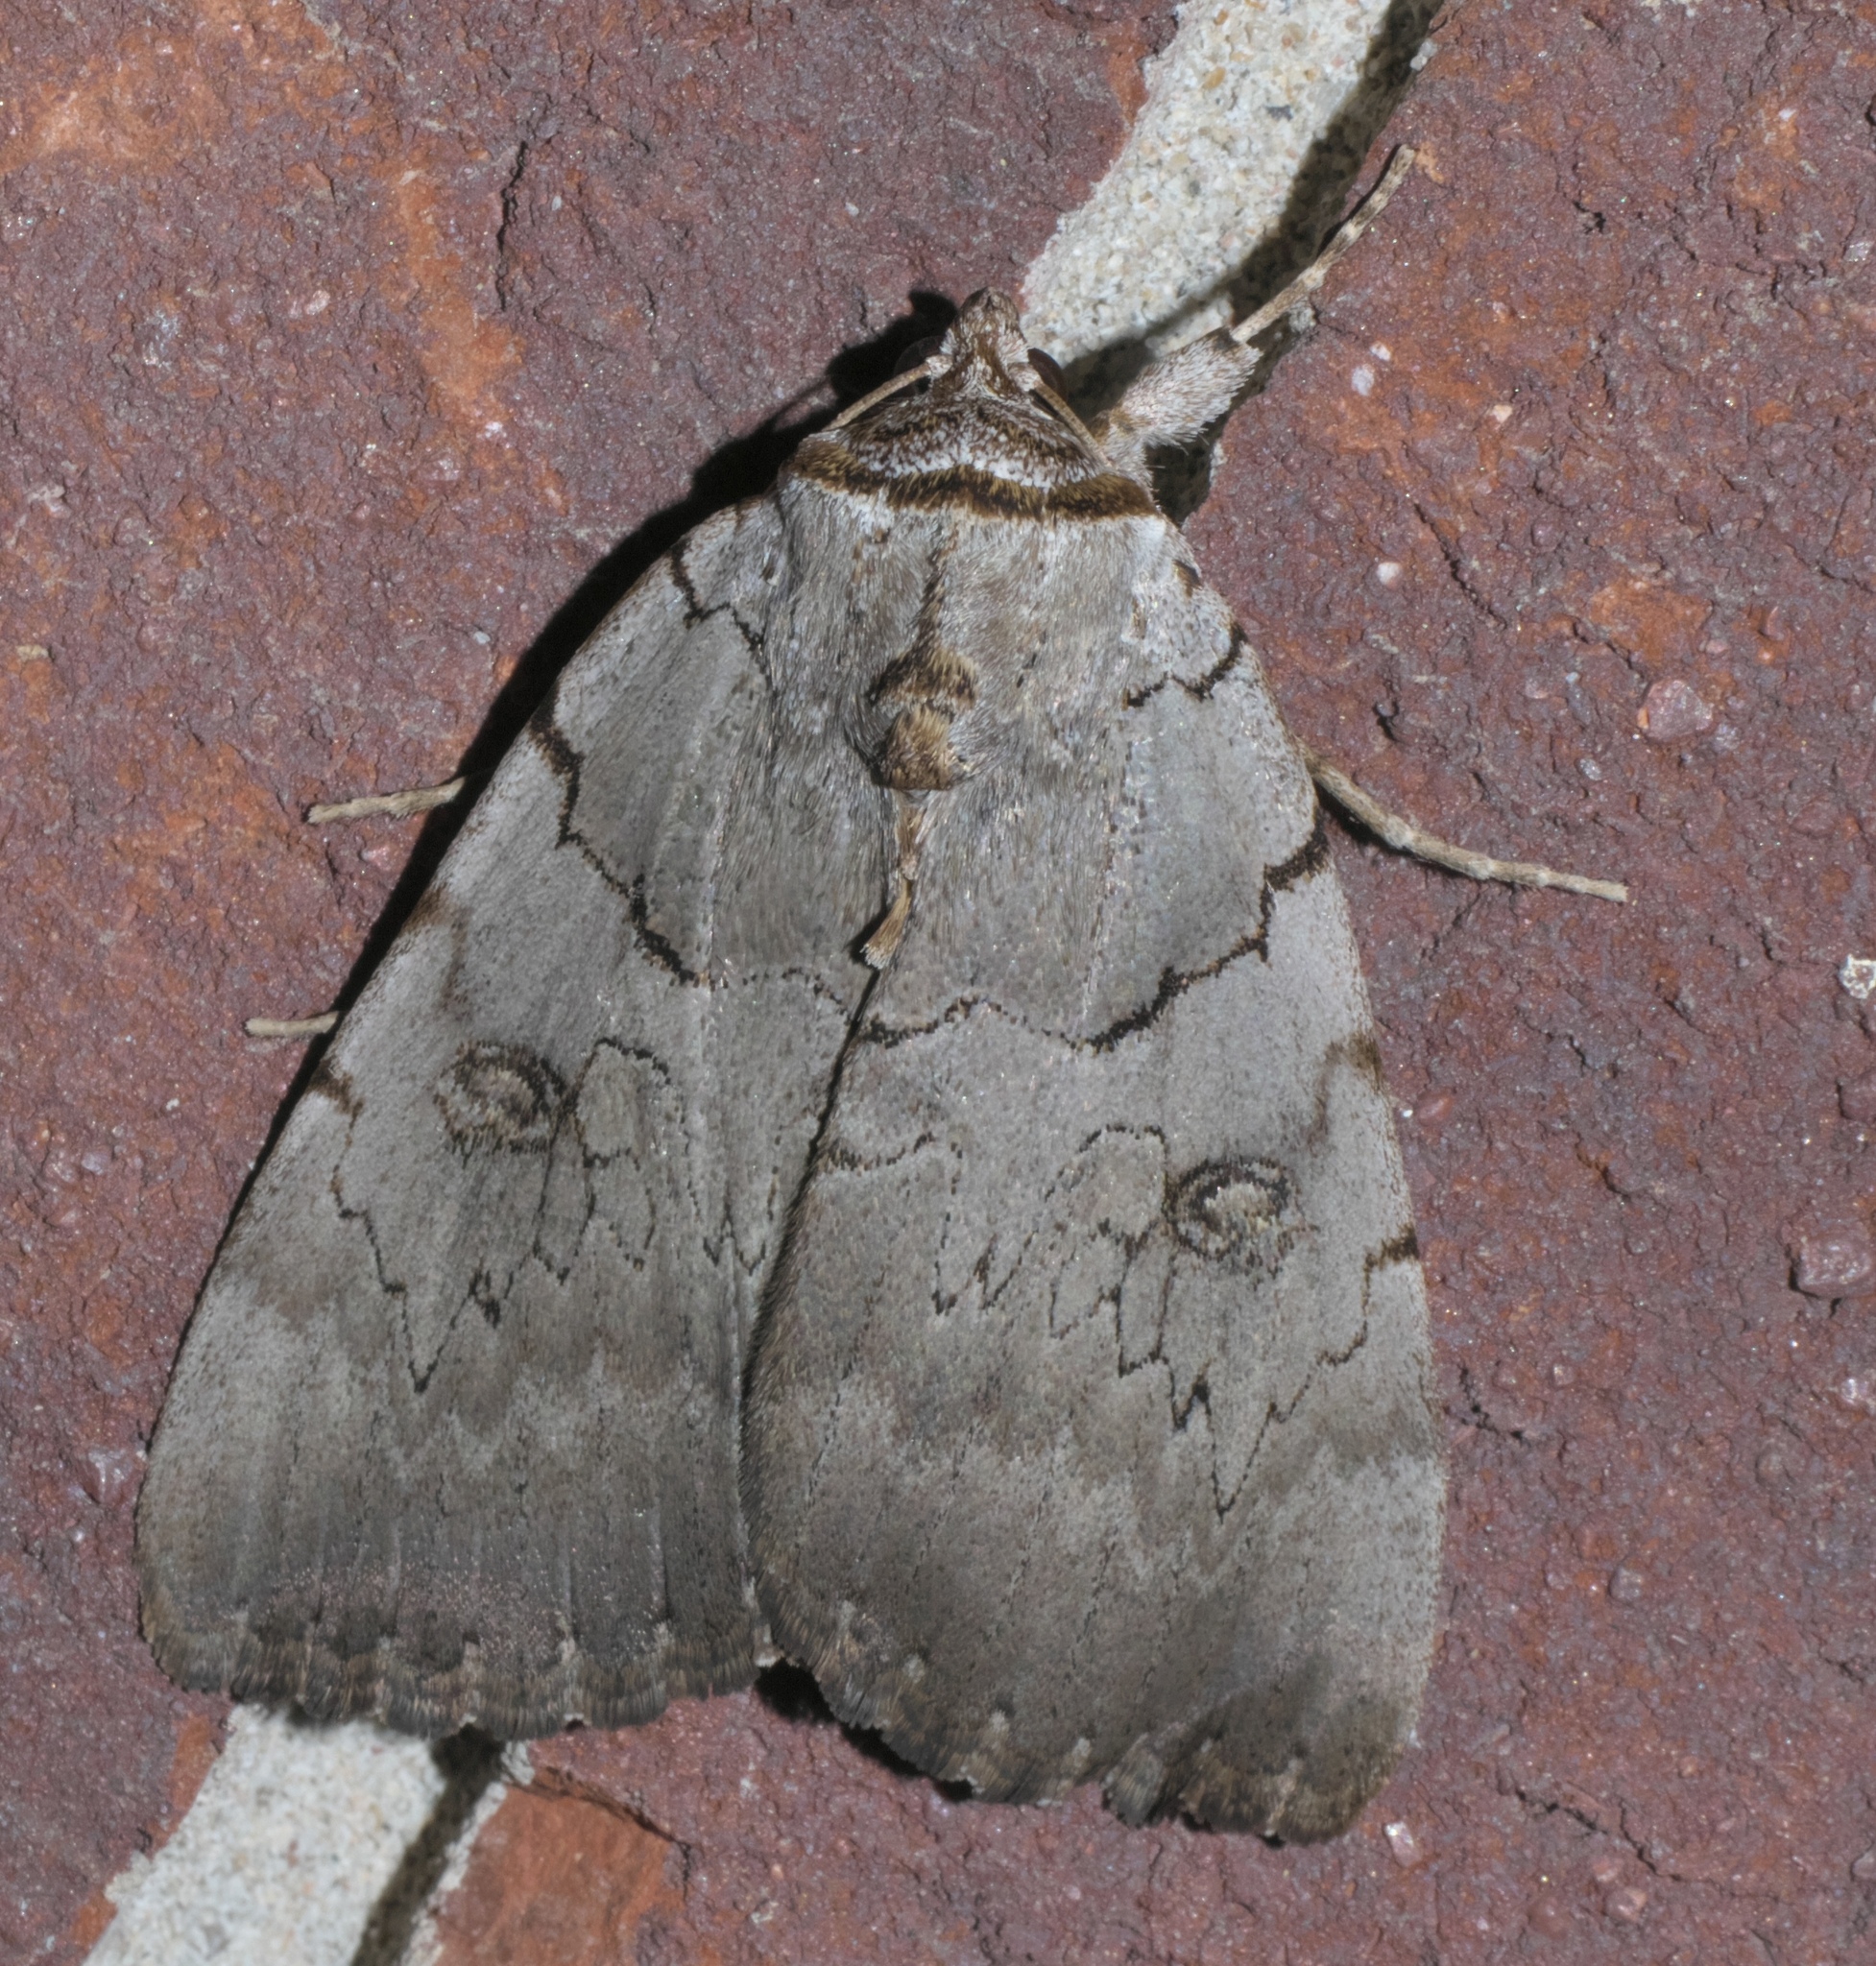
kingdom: Animalia
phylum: Arthropoda
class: Insecta
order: Lepidoptera
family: Erebidae
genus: Catocala
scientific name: Catocala illecta
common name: Magdalen underwing
